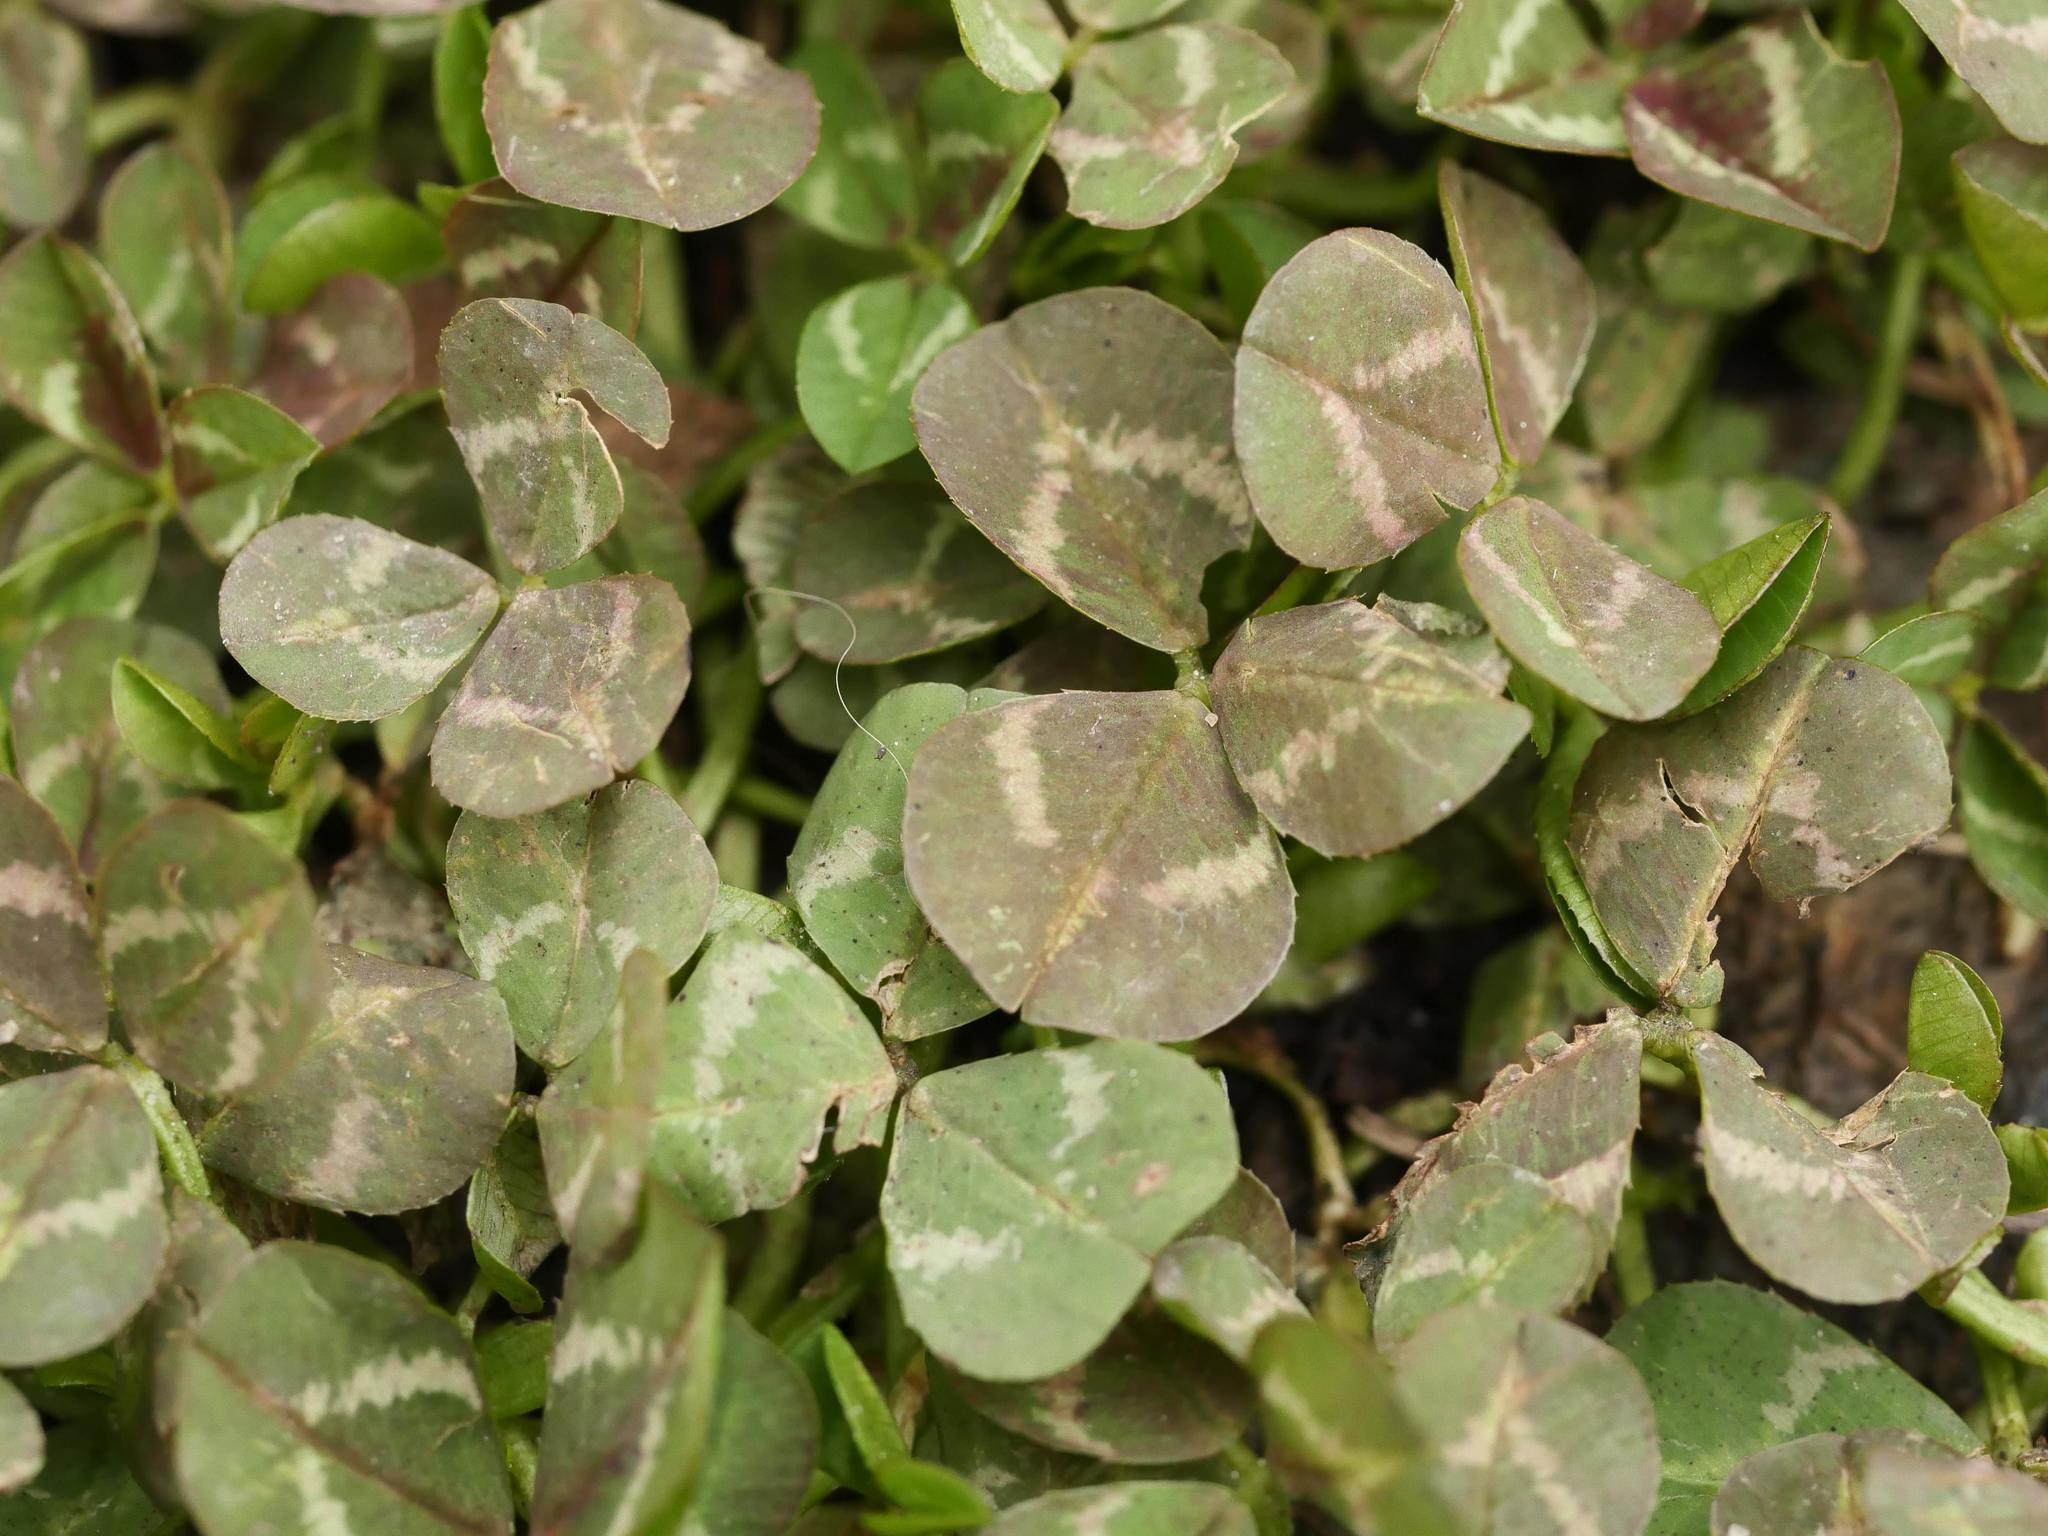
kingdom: Plantae
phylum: Tracheophyta
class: Magnoliopsida
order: Fabales
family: Fabaceae
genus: Trifolium
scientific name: Trifolium repens
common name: White clover
